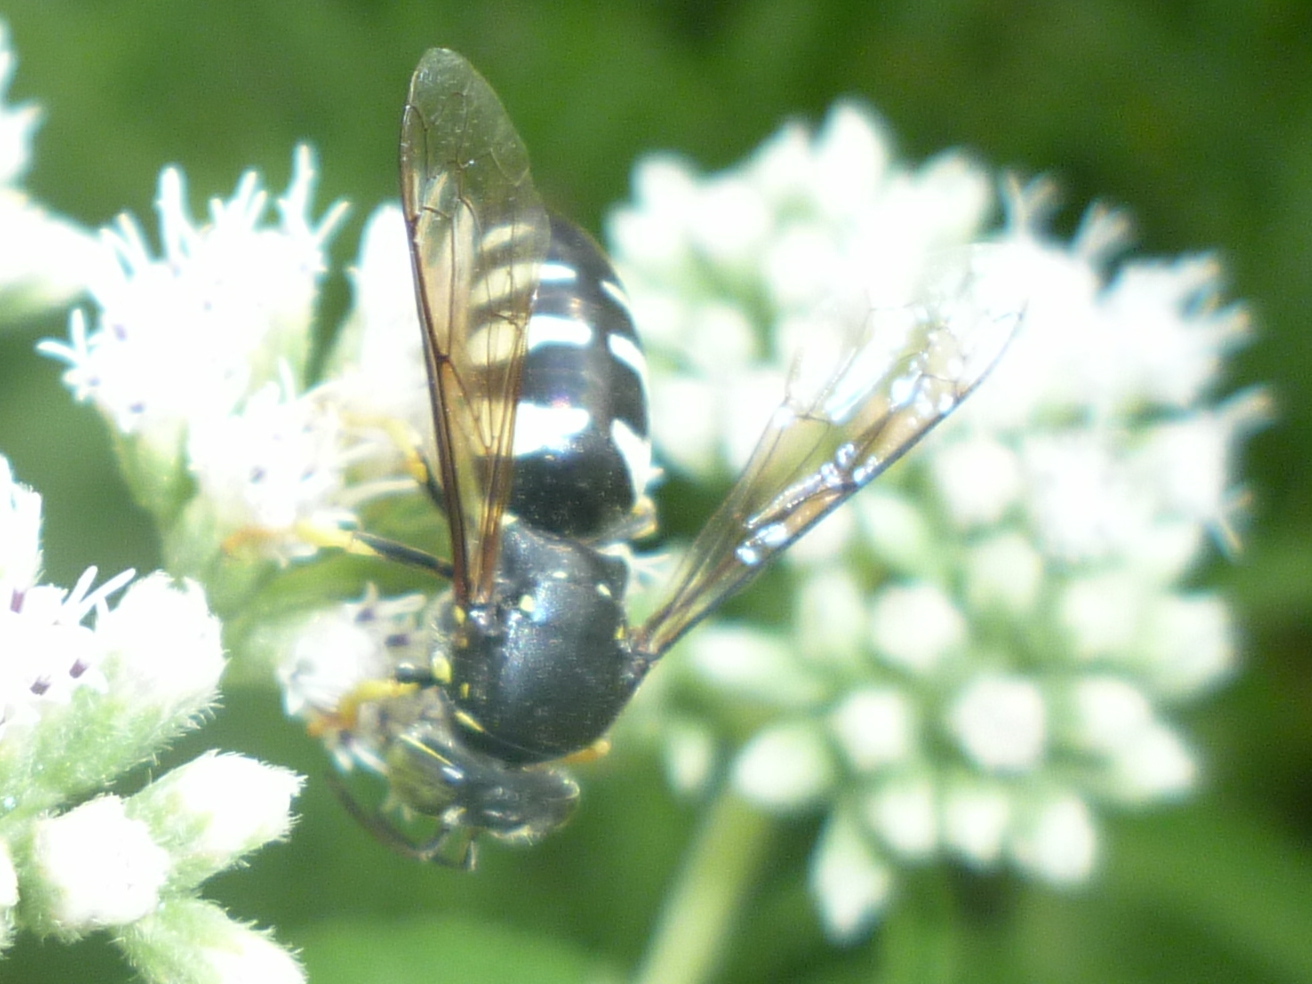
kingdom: Animalia
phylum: Arthropoda
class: Insecta
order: Hymenoptera
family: Crabronidae
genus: Bicyrtes
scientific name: Bicyrtes quadrifasciatus
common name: Four-banded stink bug hunter wasp
